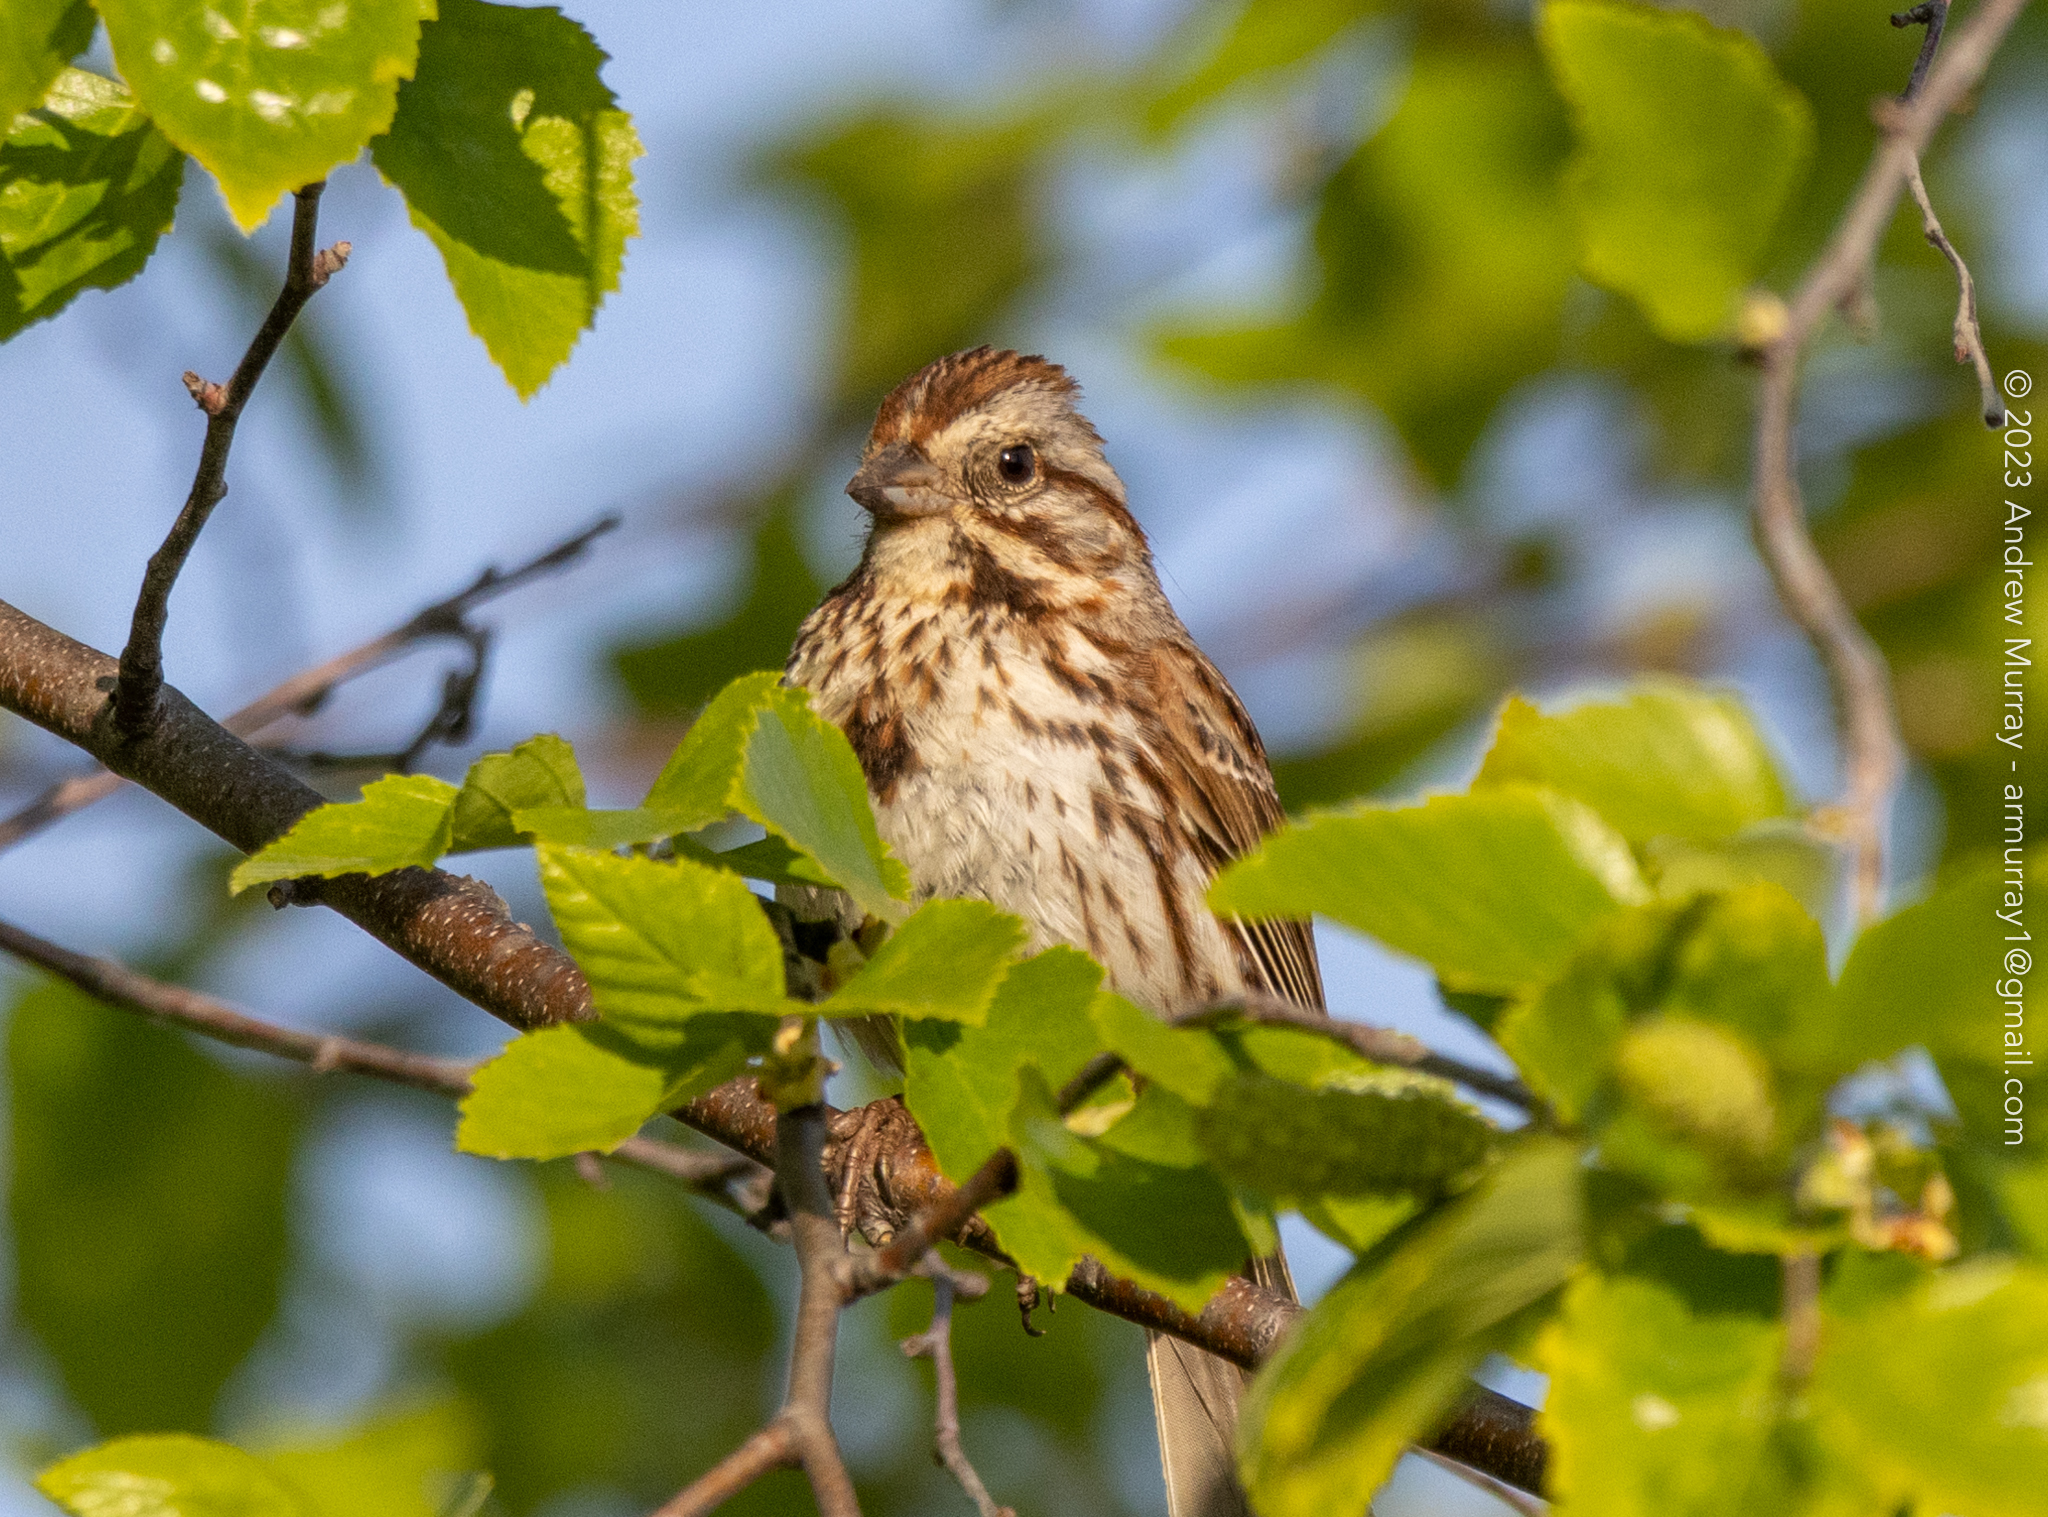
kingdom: Animalia
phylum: Chordata
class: Aves
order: Passeriformes
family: Passerellidae
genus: Melospiza
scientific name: Melospiza melodia
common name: Song sparrow
